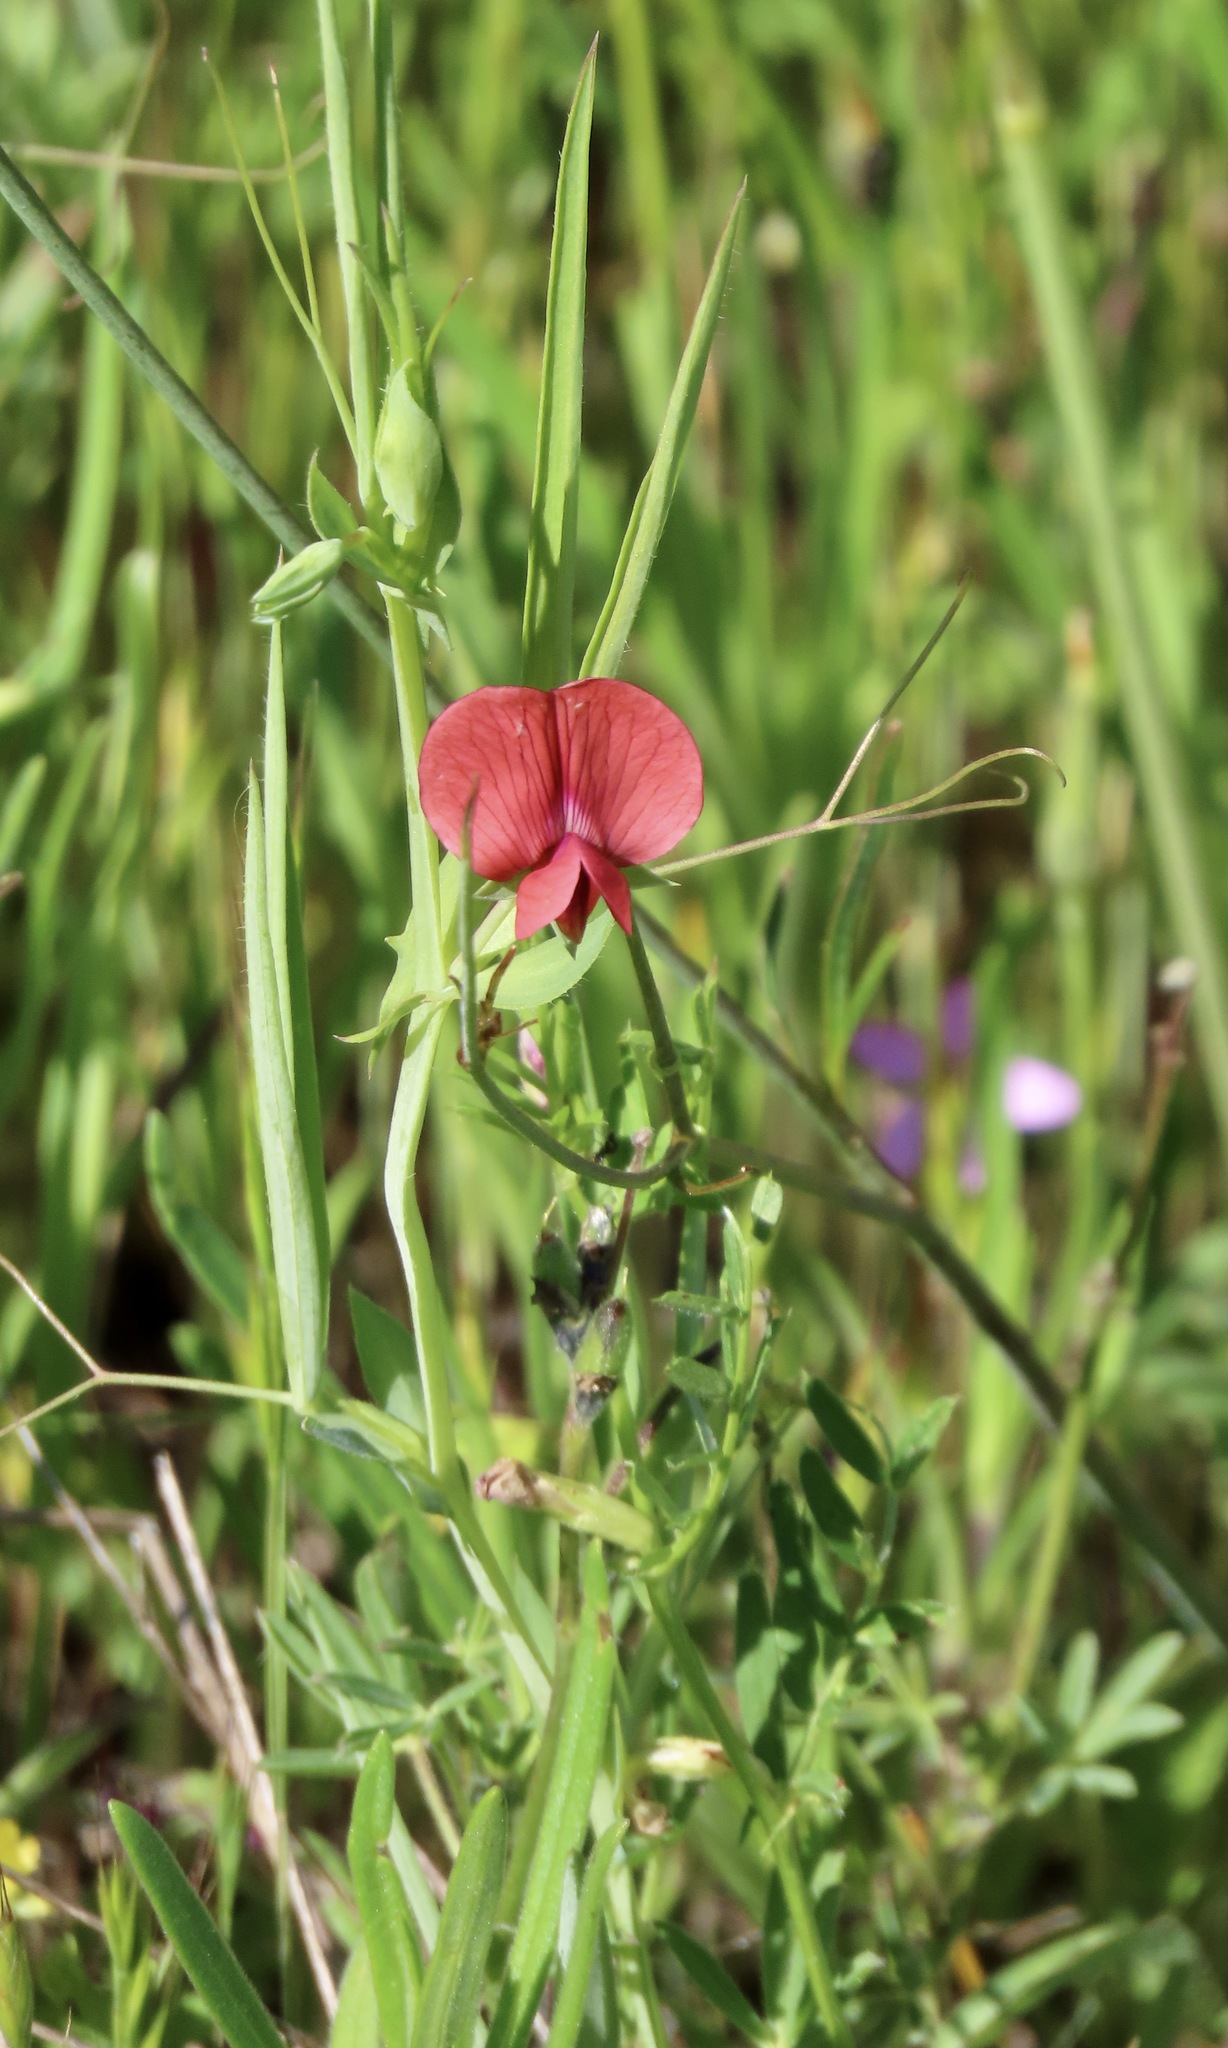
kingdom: Plantae
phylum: Tracheophyta
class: Magnoliopsida
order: Fabales
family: Fabaceae
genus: Lathyrus
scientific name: Lathyrus cicera
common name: Red vetchling
